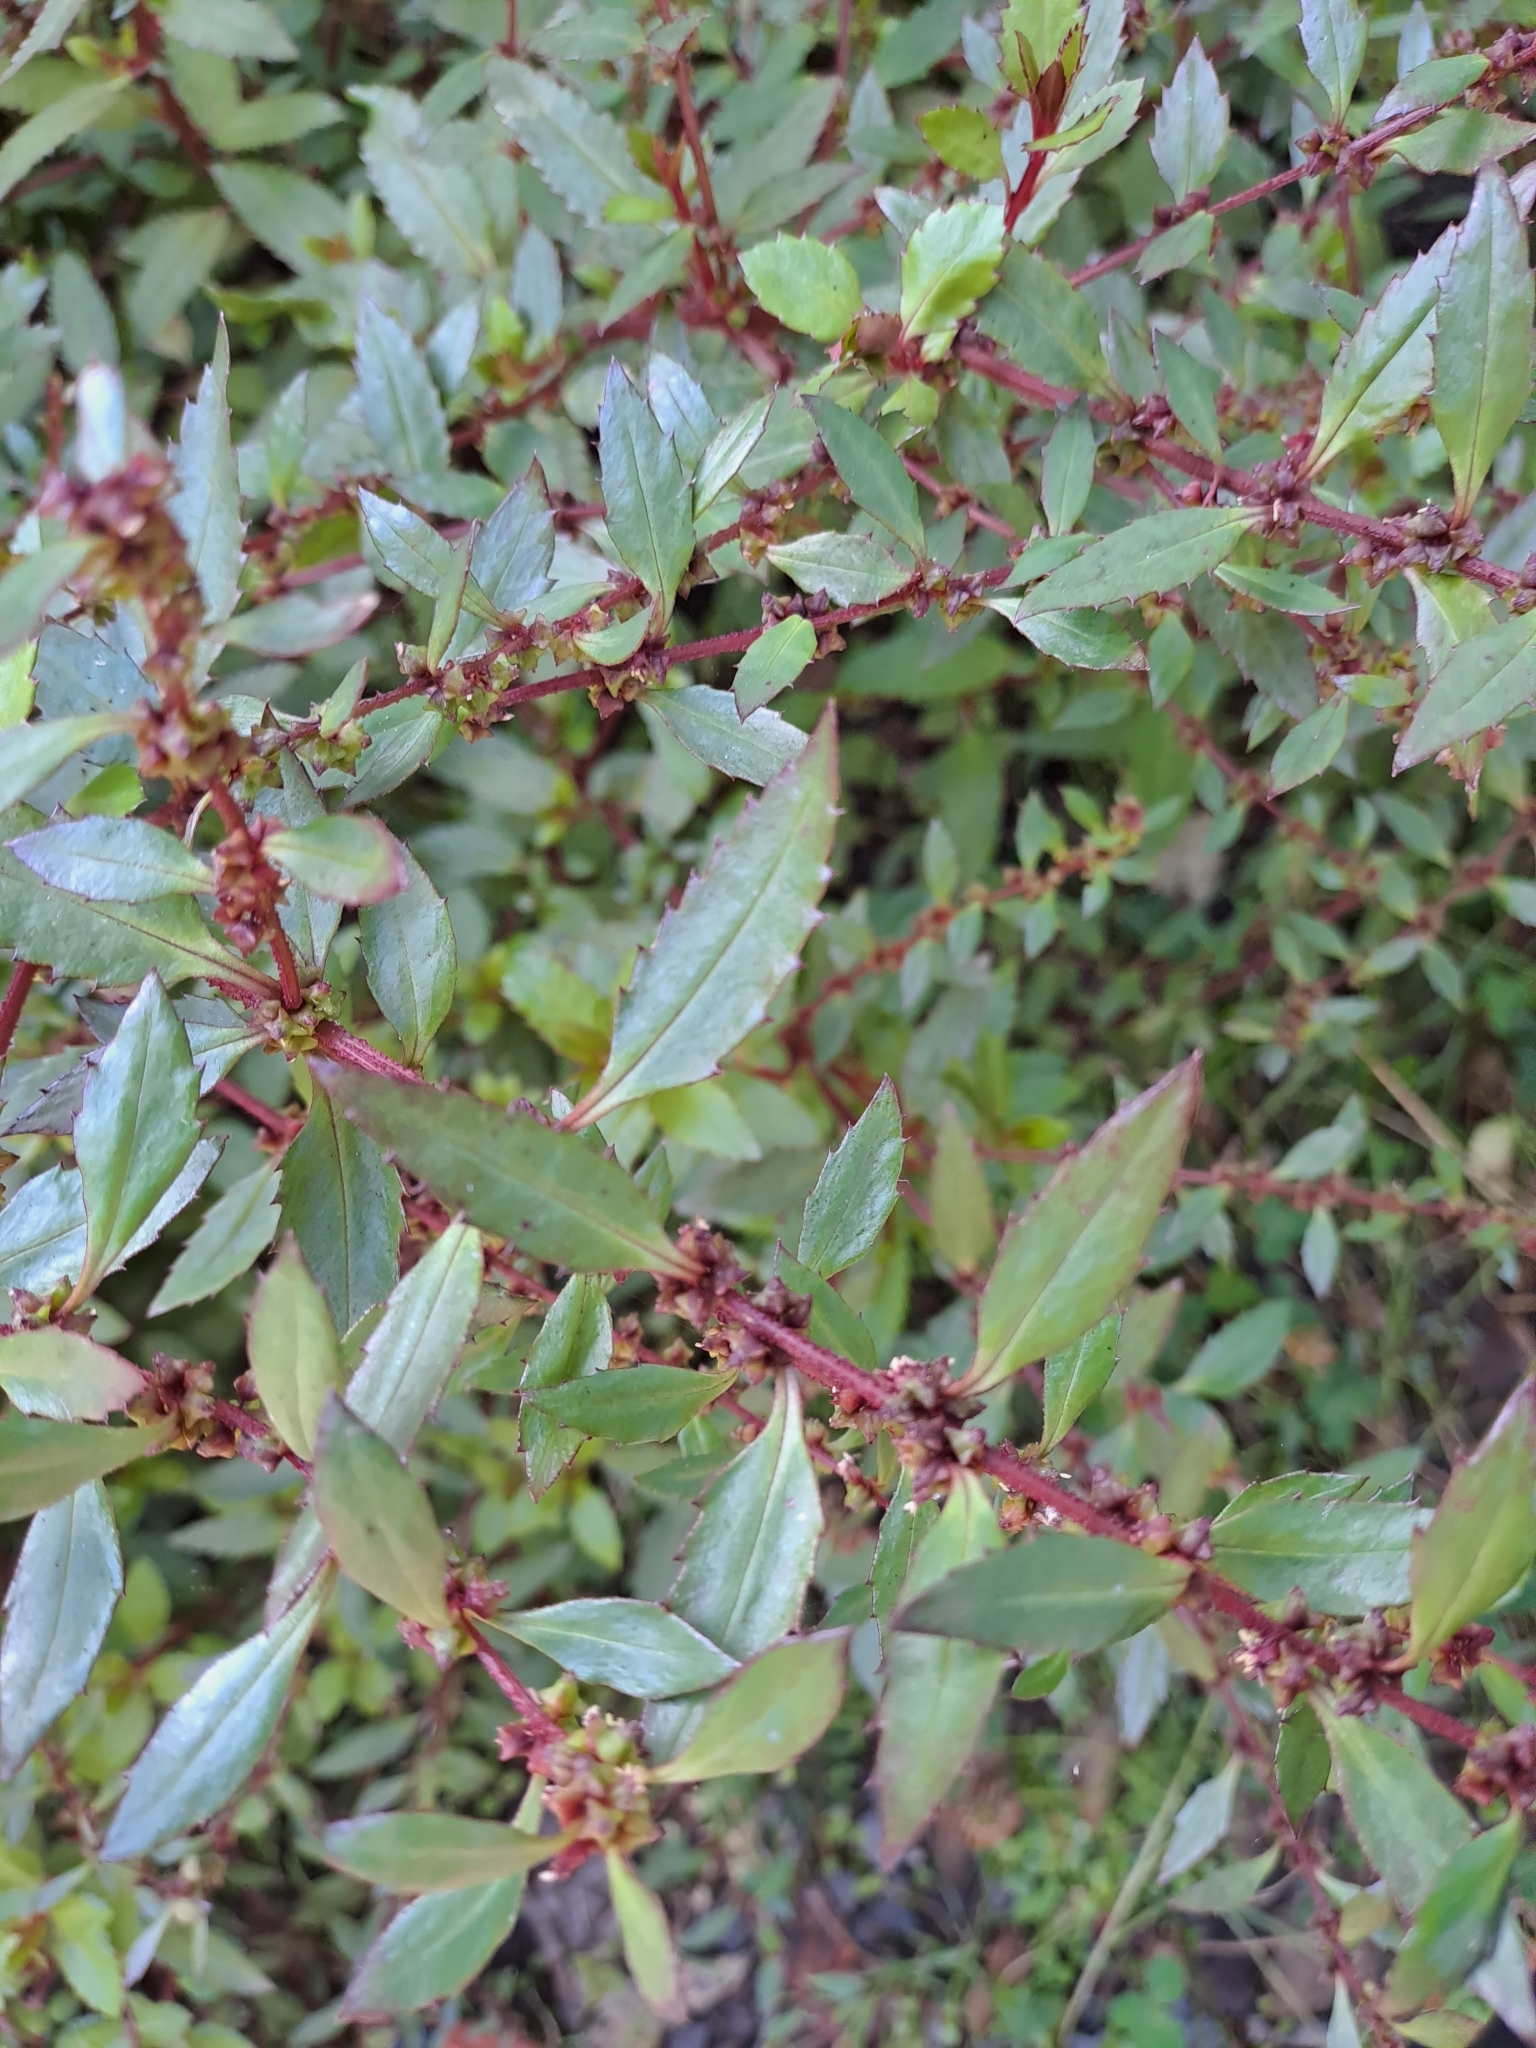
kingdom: Plantae
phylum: Tracheophyta
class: Magnoliopsida
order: Saxifragales
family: Haloragaceae
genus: Haloragis
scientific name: Haloragis erecta
